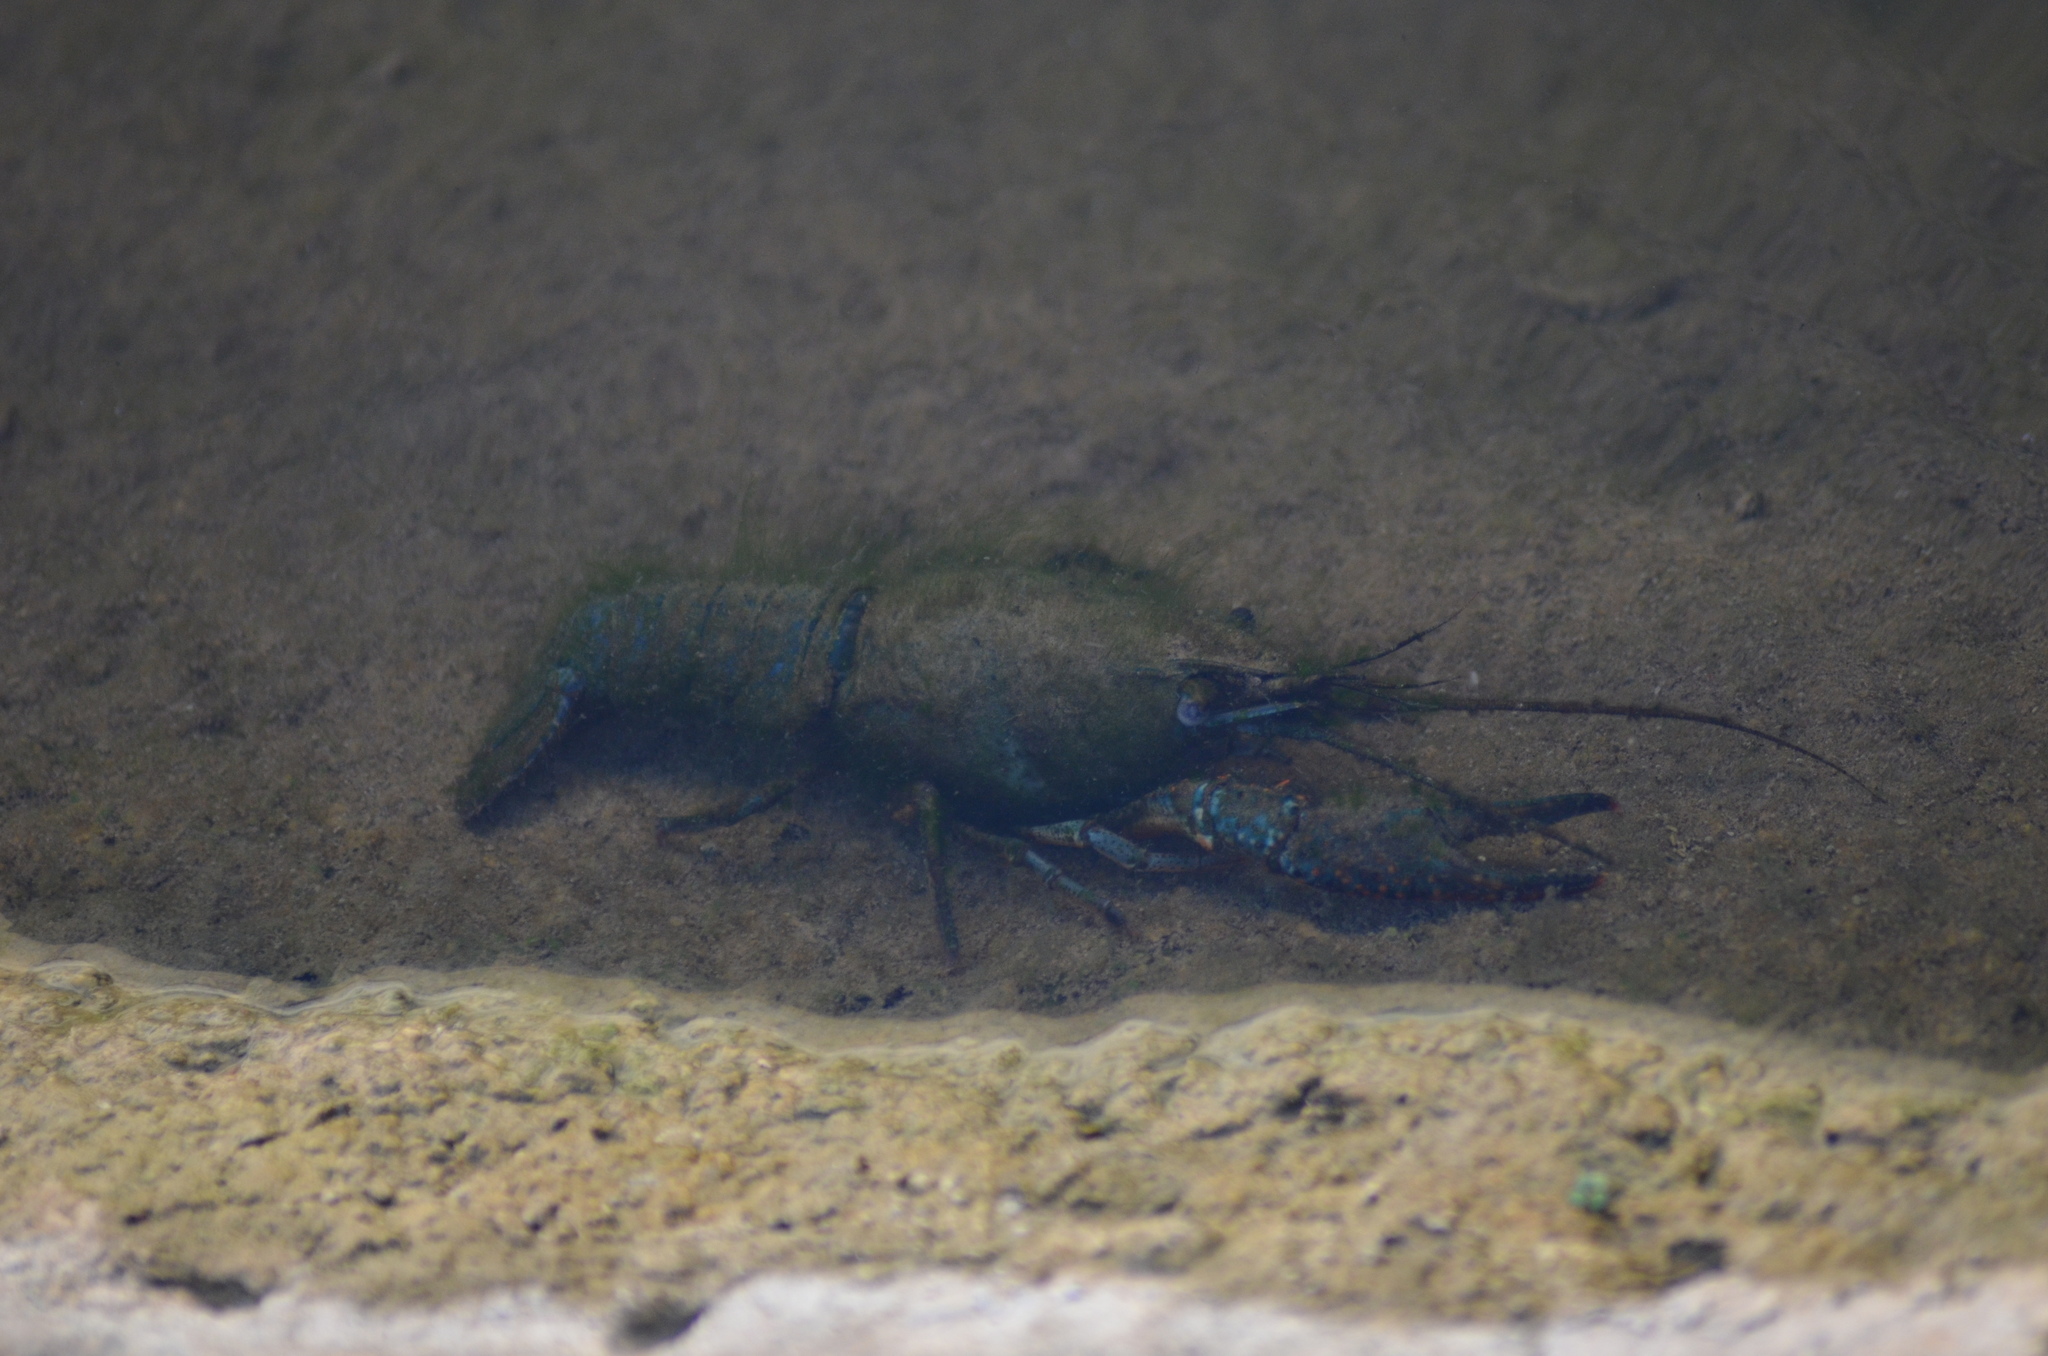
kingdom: Animalia
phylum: Arthropoda
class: Malacostraca
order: Decapoda
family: Cambaridae
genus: Procambarus
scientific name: Procambarus clarkii
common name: Red swamp crayfish
